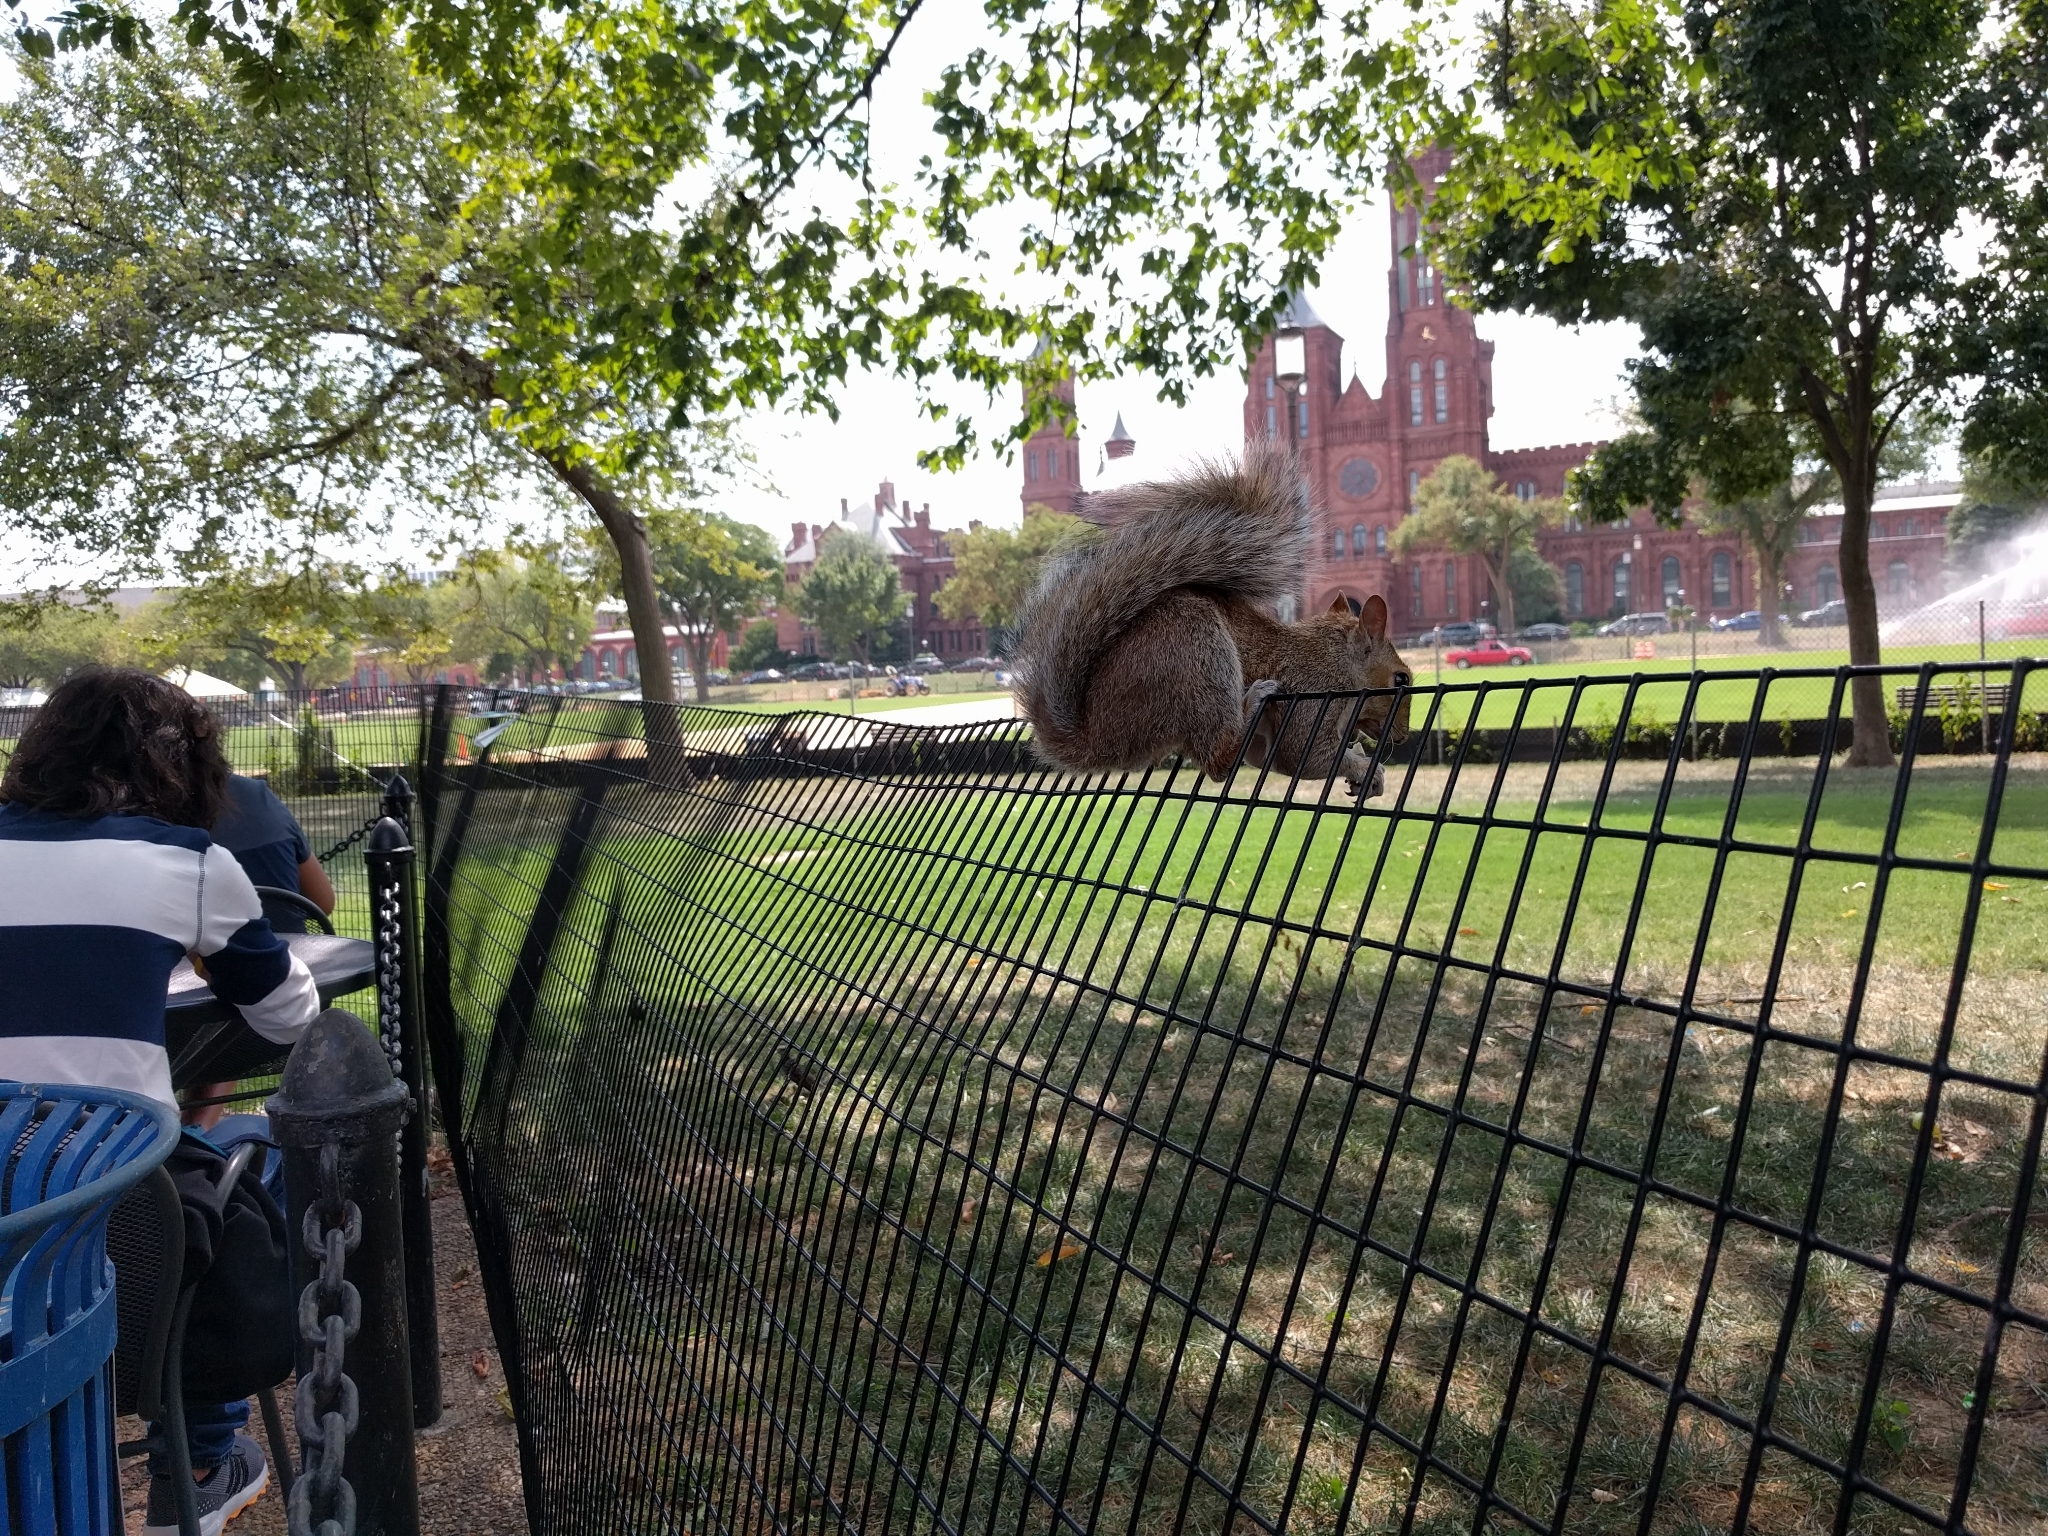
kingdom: Animalia
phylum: Chordata
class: Mammalia
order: Rodentia
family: Sciuridae
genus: Sciurus
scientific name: Sciurus carolinensis
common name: Eastern gray squirrel
